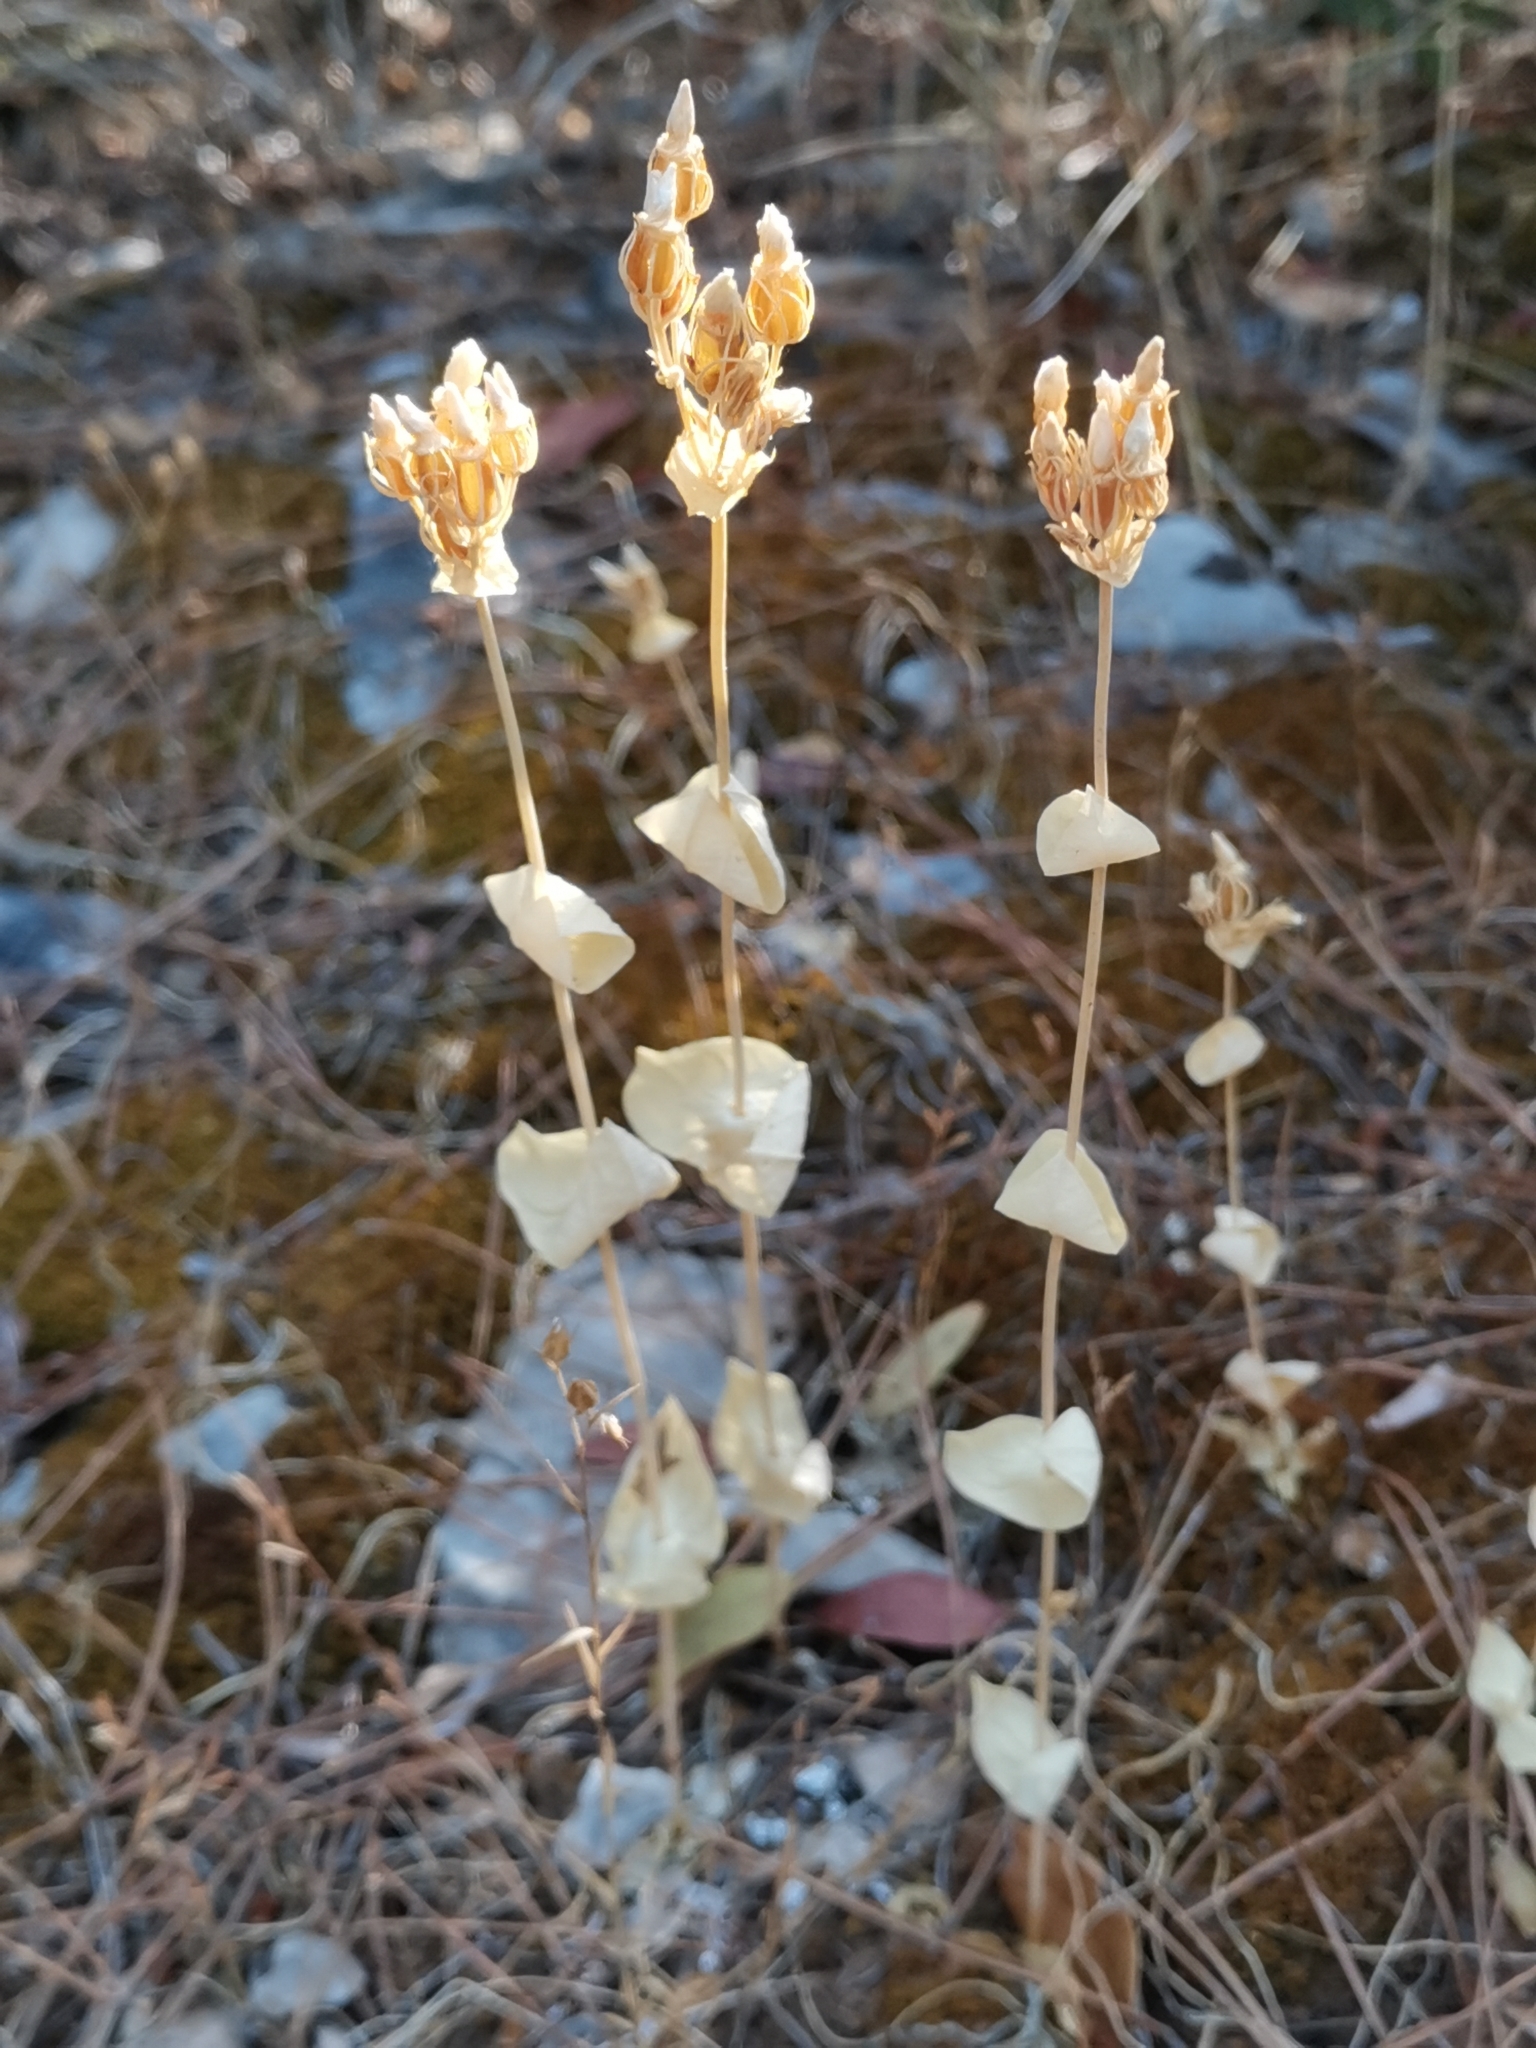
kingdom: Plantae
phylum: Tracheophyta
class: Magnoliopsida
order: Gentianales
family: Gentianaceae
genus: Blackstonia
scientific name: Blackstonia perfoliata
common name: Yellow-wort
